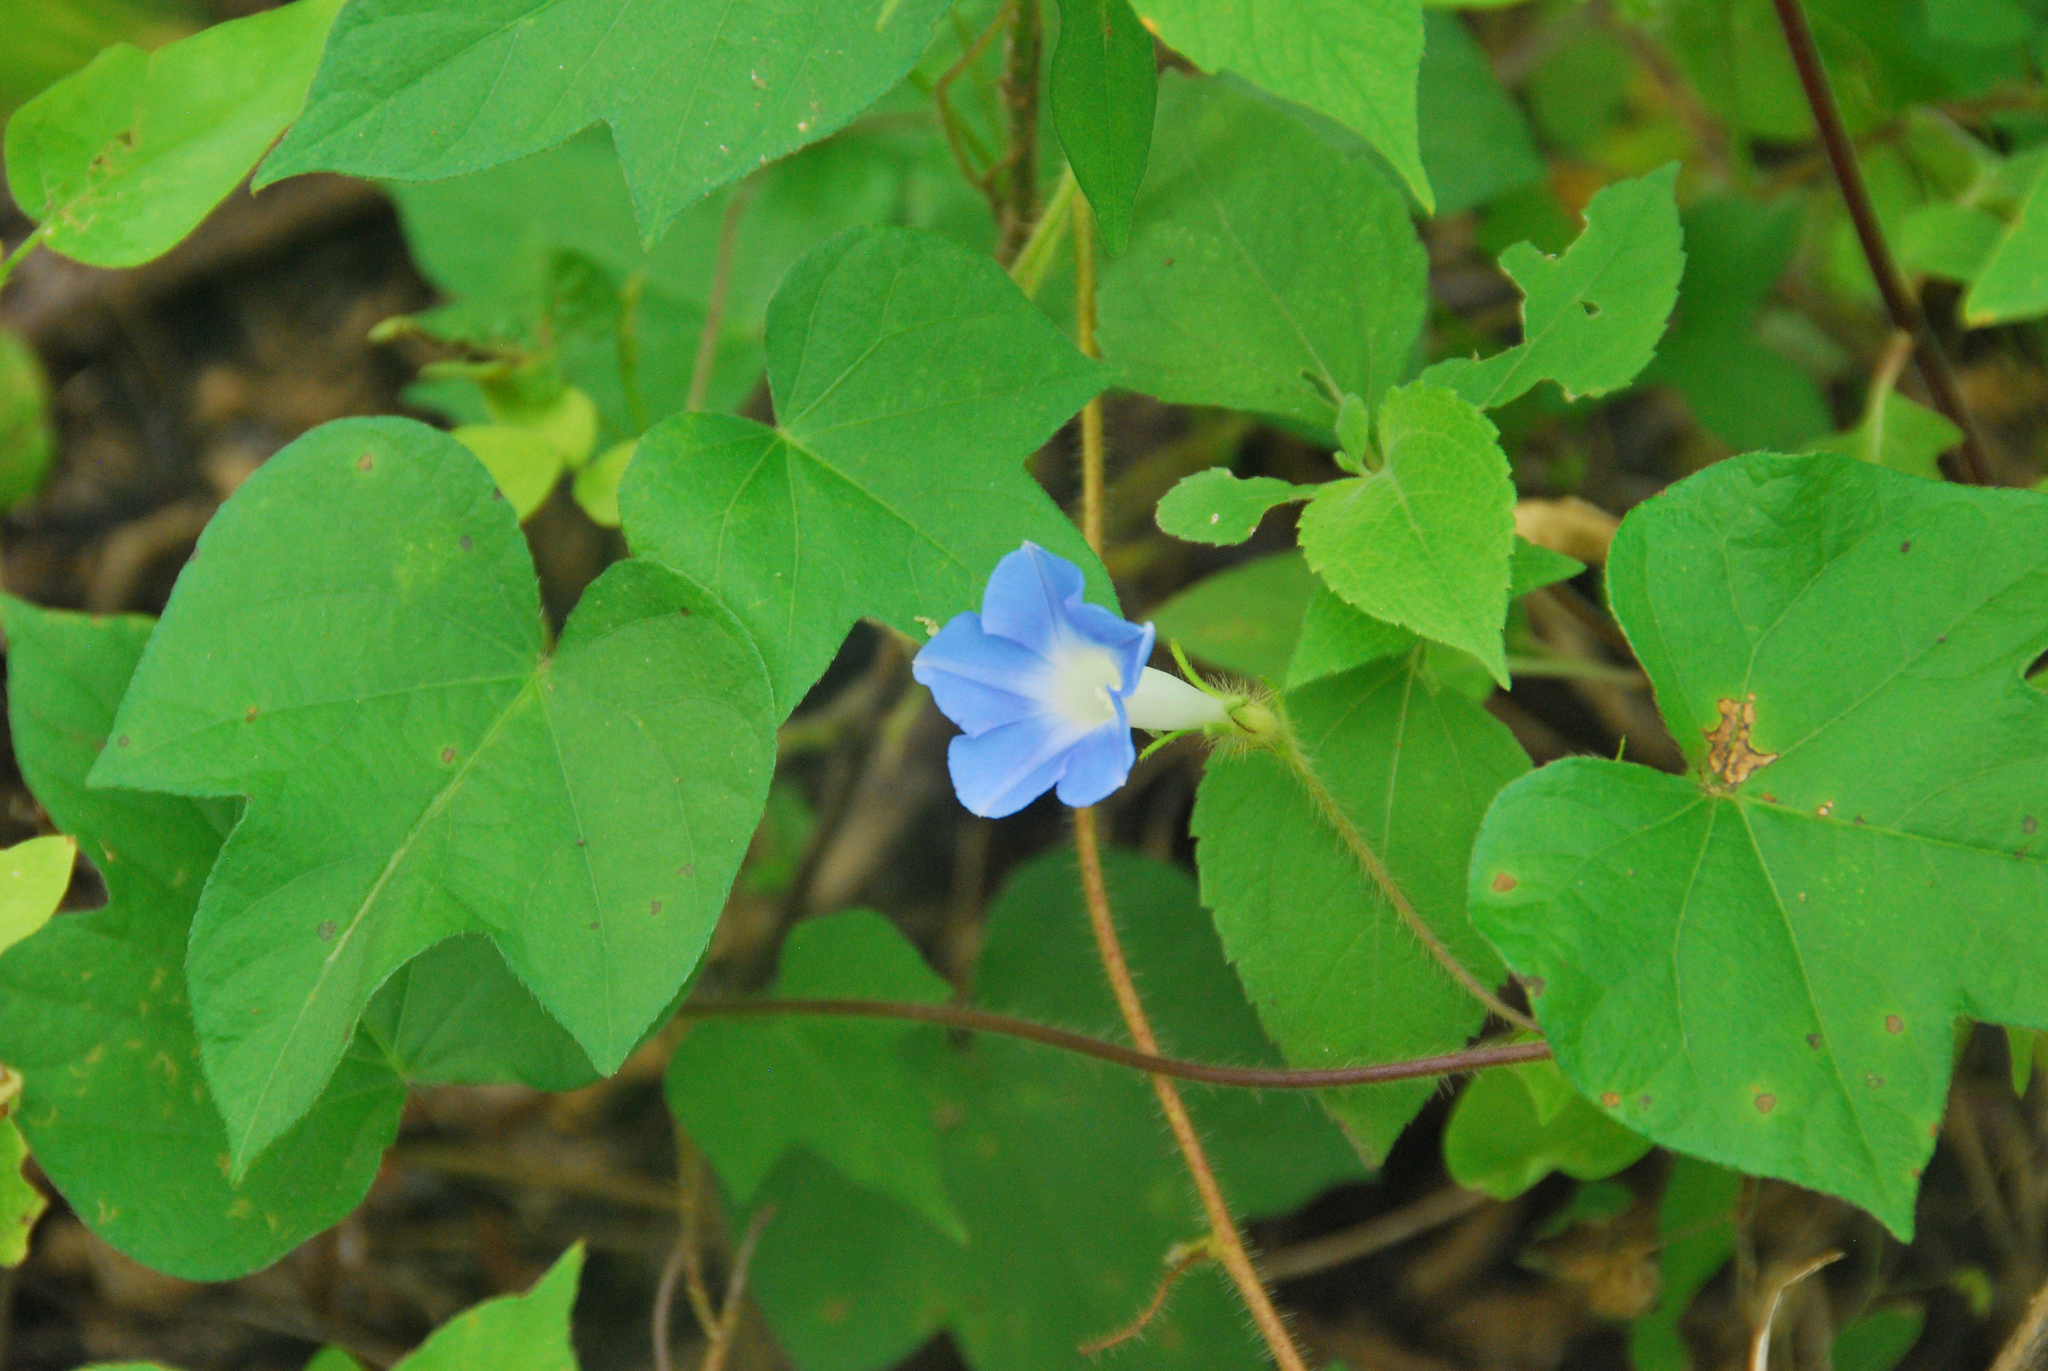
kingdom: Plantae
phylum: Tracheophyta
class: Magnoliopsida
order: Solanales
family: Convolvulaceae
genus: Ipomoea
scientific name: Ipomoea nil
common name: Japanese morning-glory
